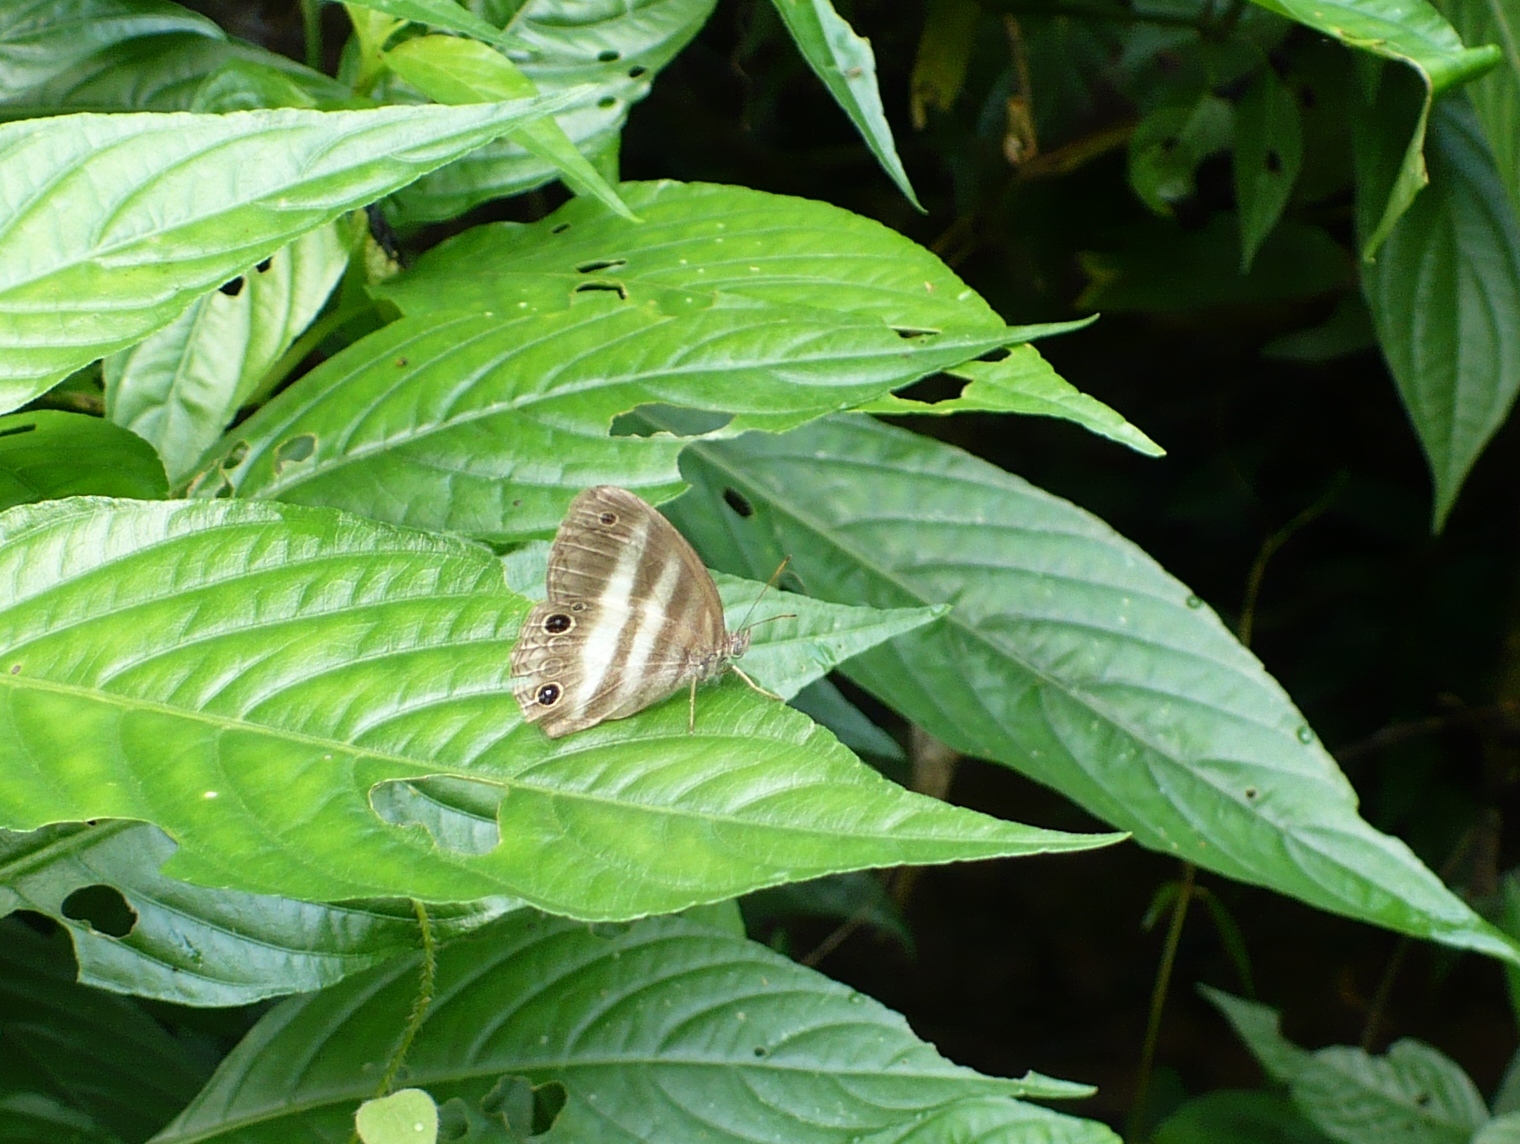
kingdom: Animalia
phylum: Arthropoda
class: Insecta
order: Lepidoptera
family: Nymphalidae
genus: Pareuptychia
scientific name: Pareuptychia hesione
